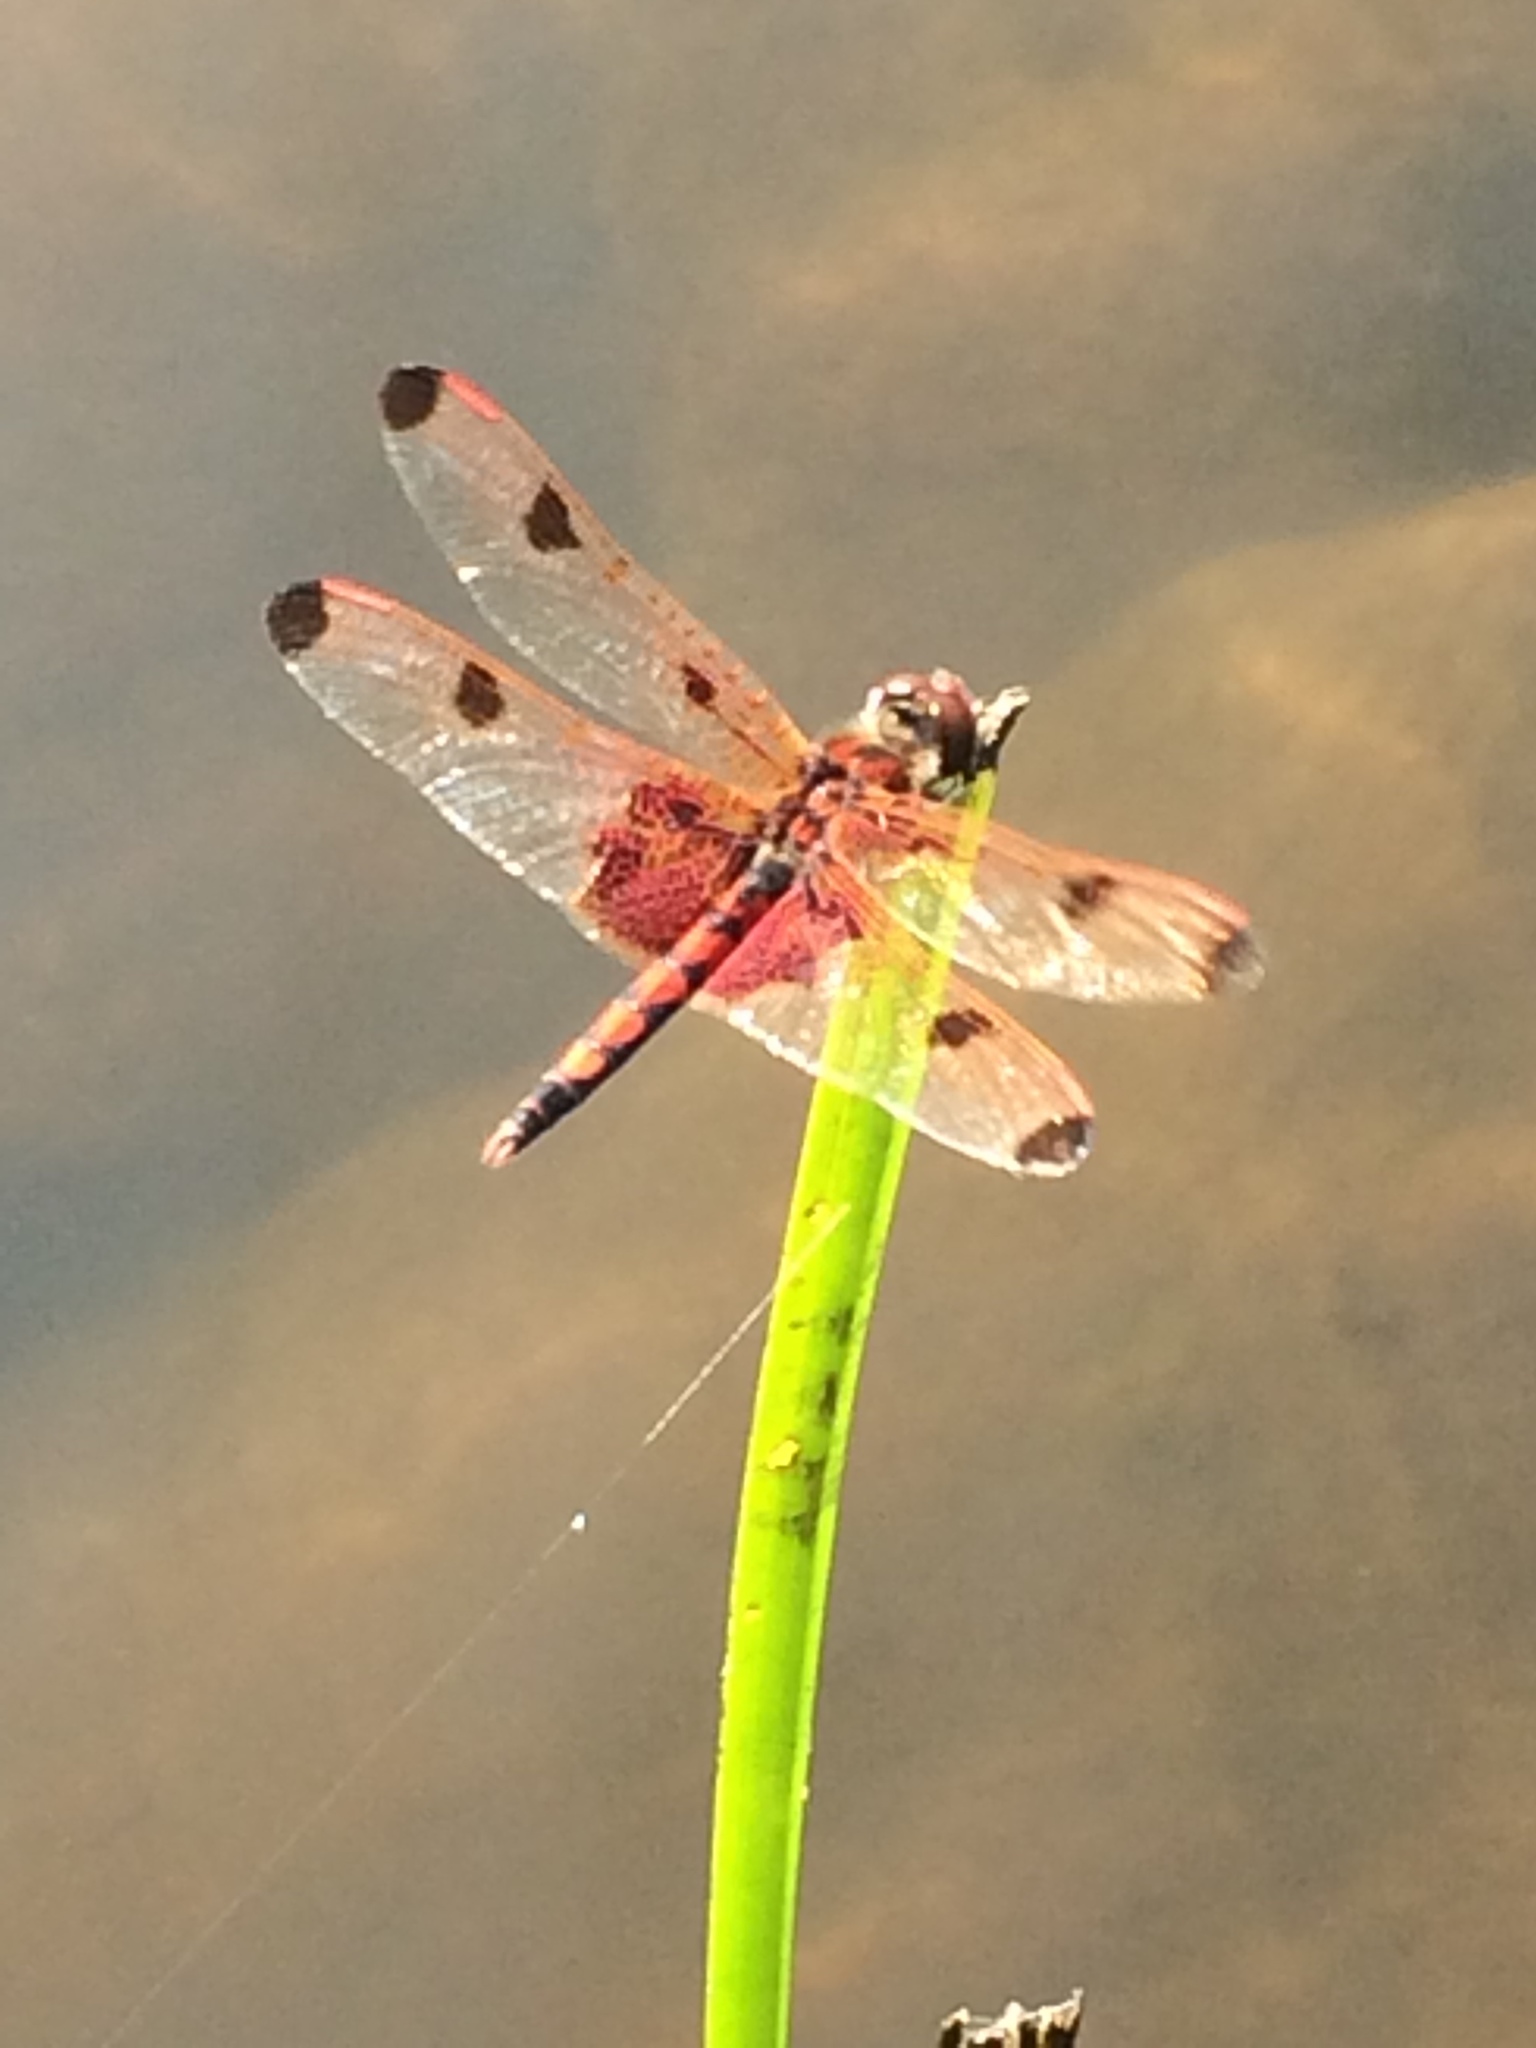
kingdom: Animalia
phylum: Arthropoda
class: Insecta
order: Odonata
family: Libellulidae
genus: Celithemis
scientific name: Celithemis elisa
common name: Calico pennant
